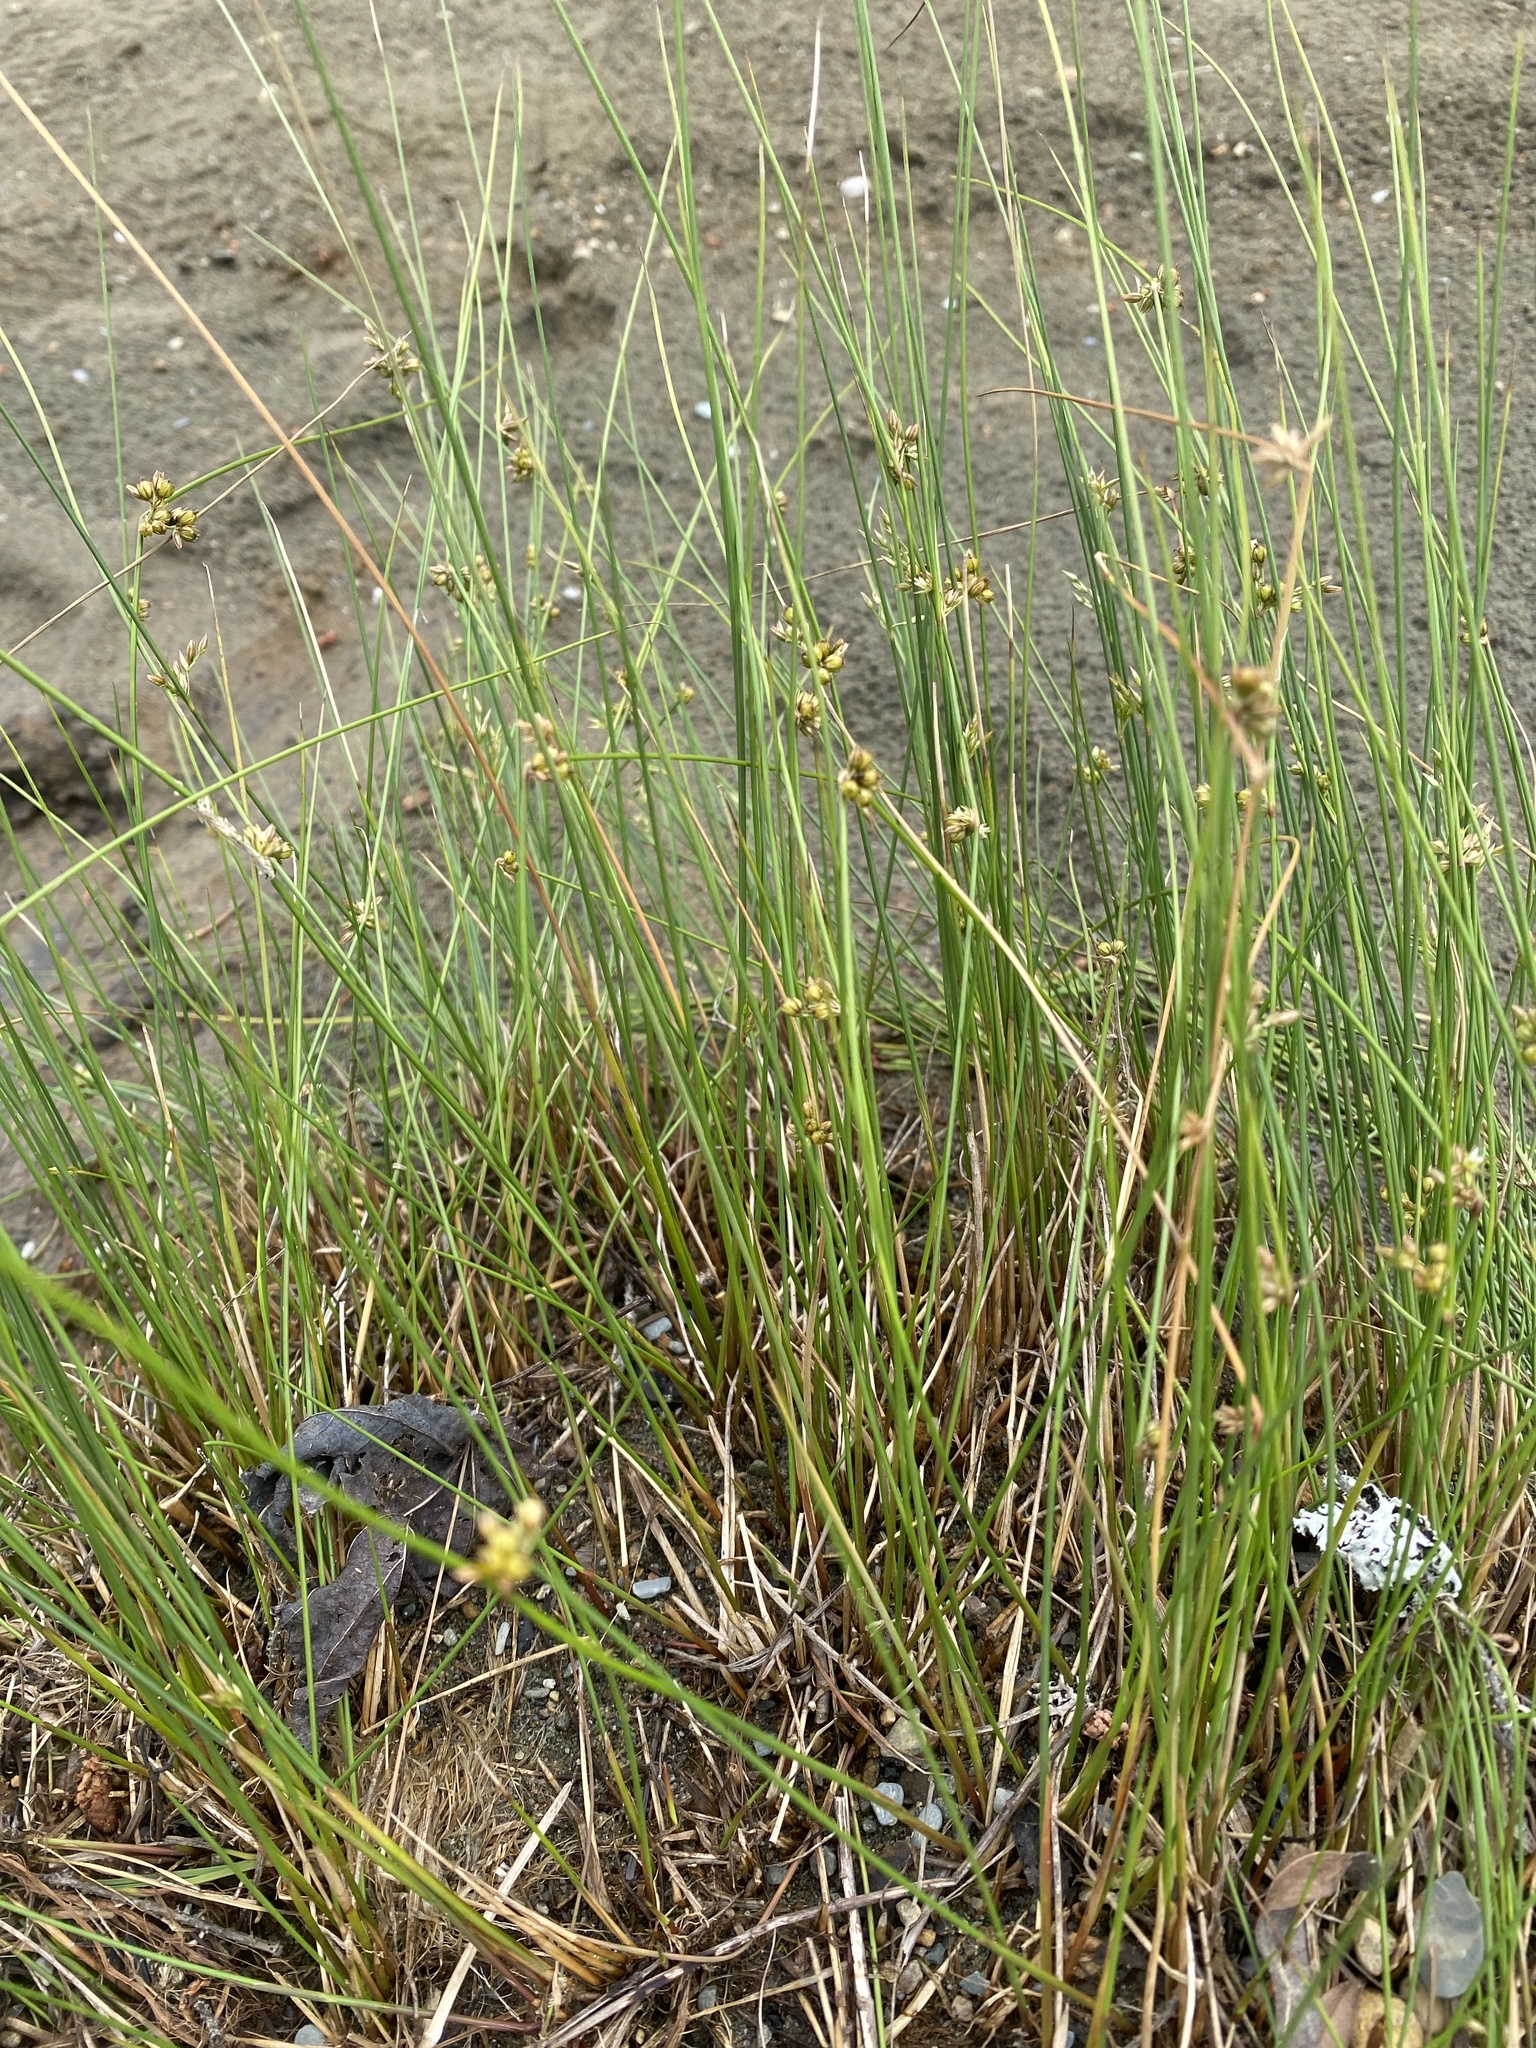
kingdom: Plantae
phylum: Tracheophyta
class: Liliopsida
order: Poales
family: Juncaceae
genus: Juncus
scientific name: Juncus filiformis
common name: Thread rush
